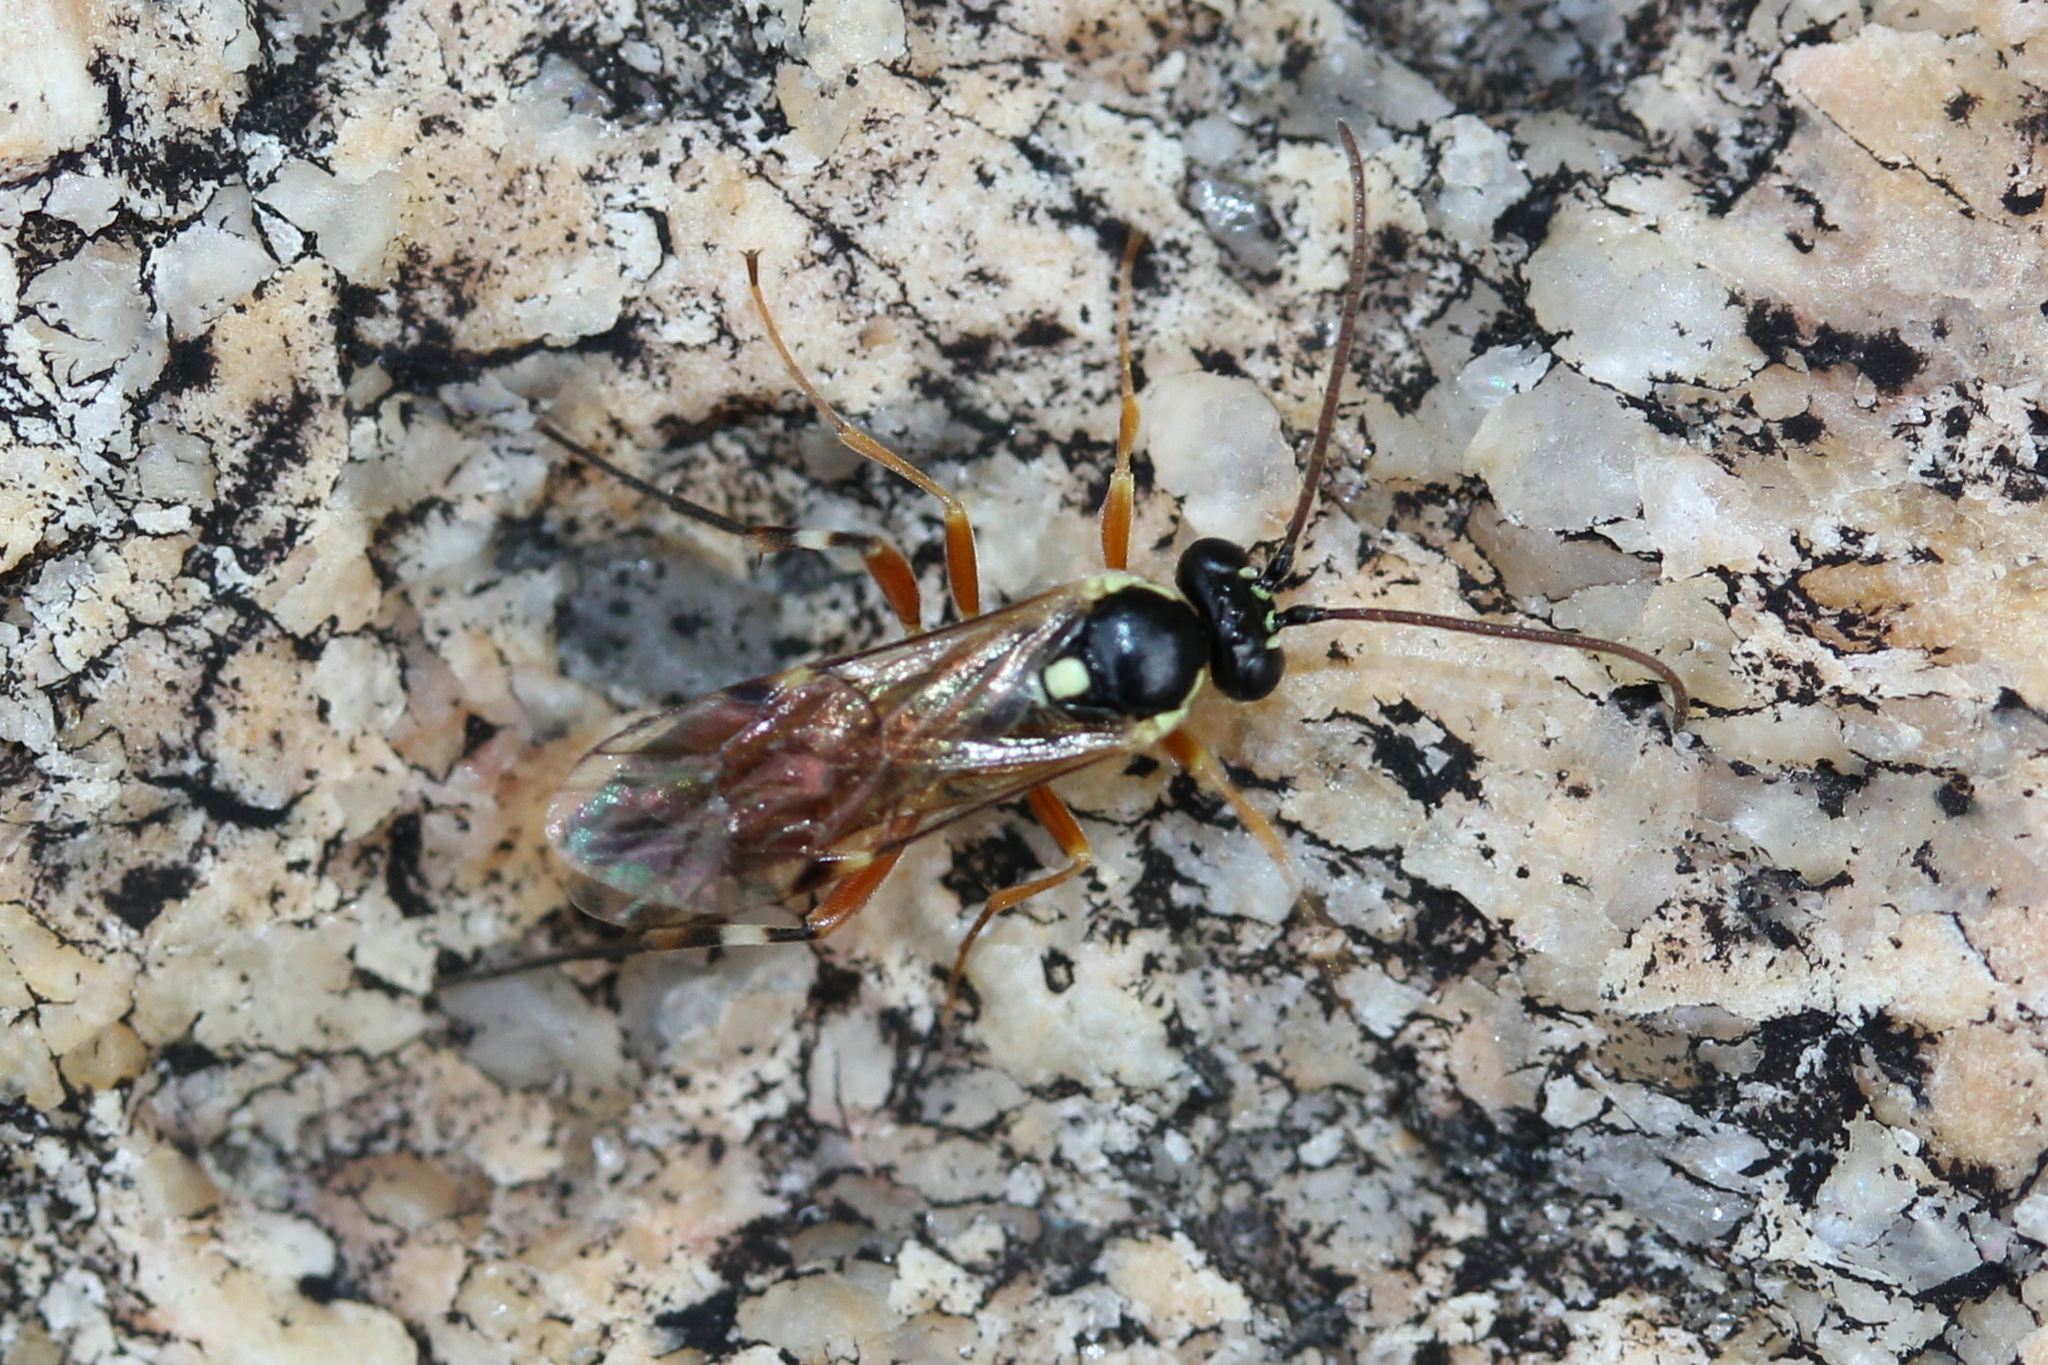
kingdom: Animalia
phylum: Arthropoda
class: Insecta
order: Hymenoptera
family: Ichneumonidae
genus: Diplazon
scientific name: Diplazon laetatorius
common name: Parasitoid wasp
